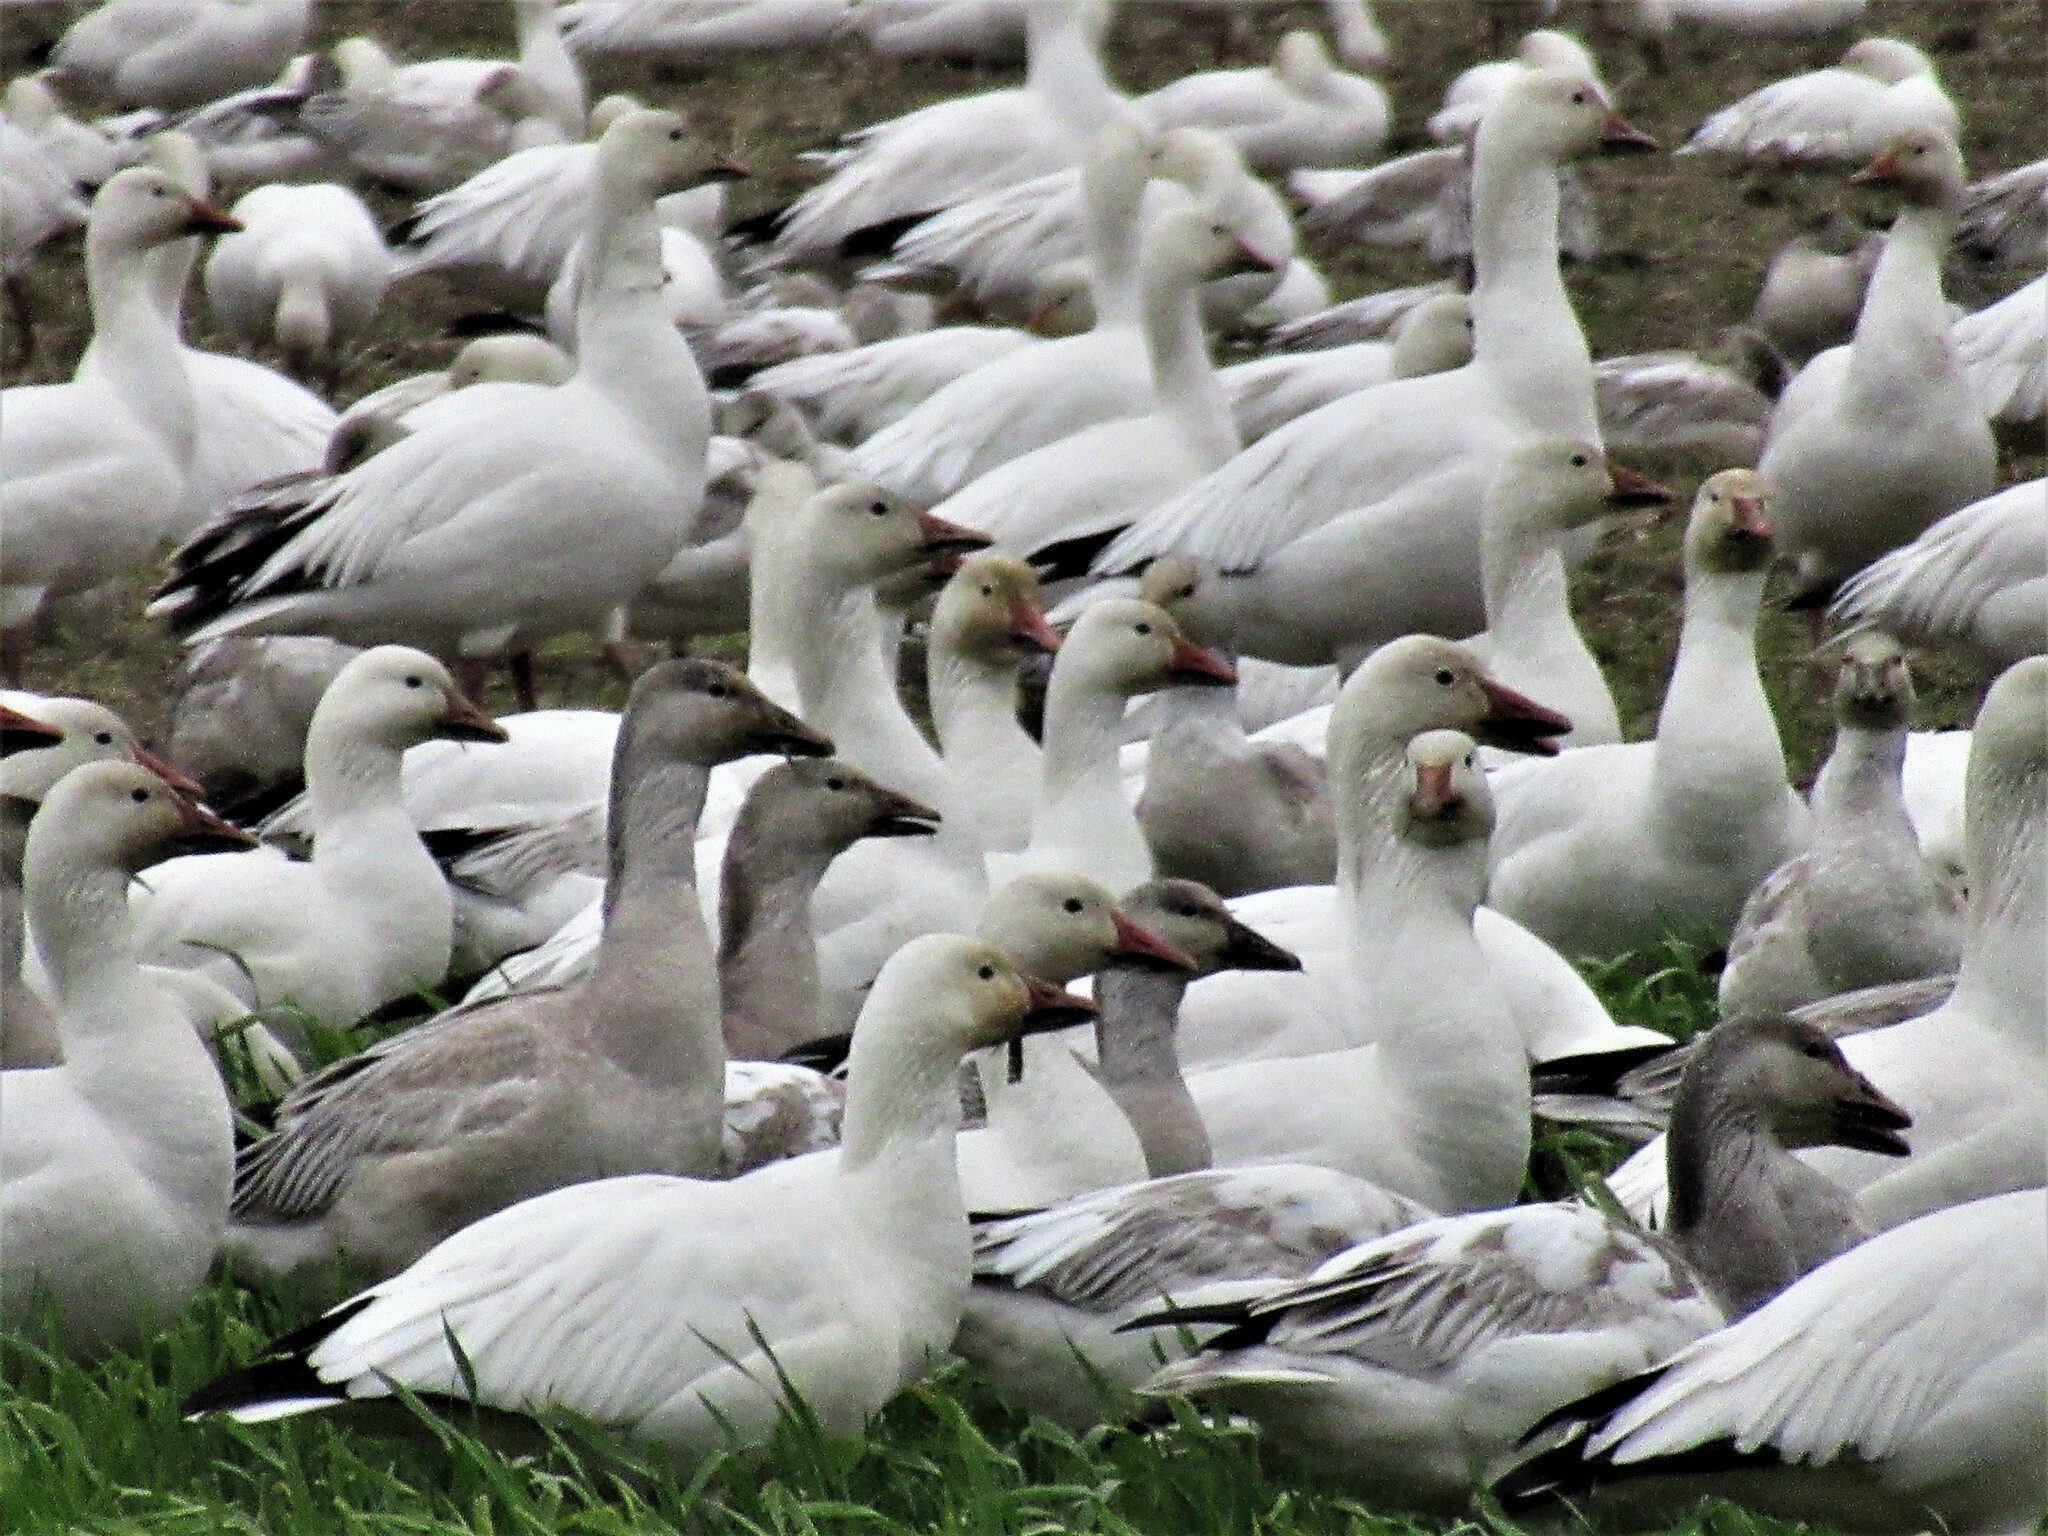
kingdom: Animalia
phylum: Chordata
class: Aves
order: Anseriformes
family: Anatidae
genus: Anser
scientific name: Anser caerulescens
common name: Snow goose
